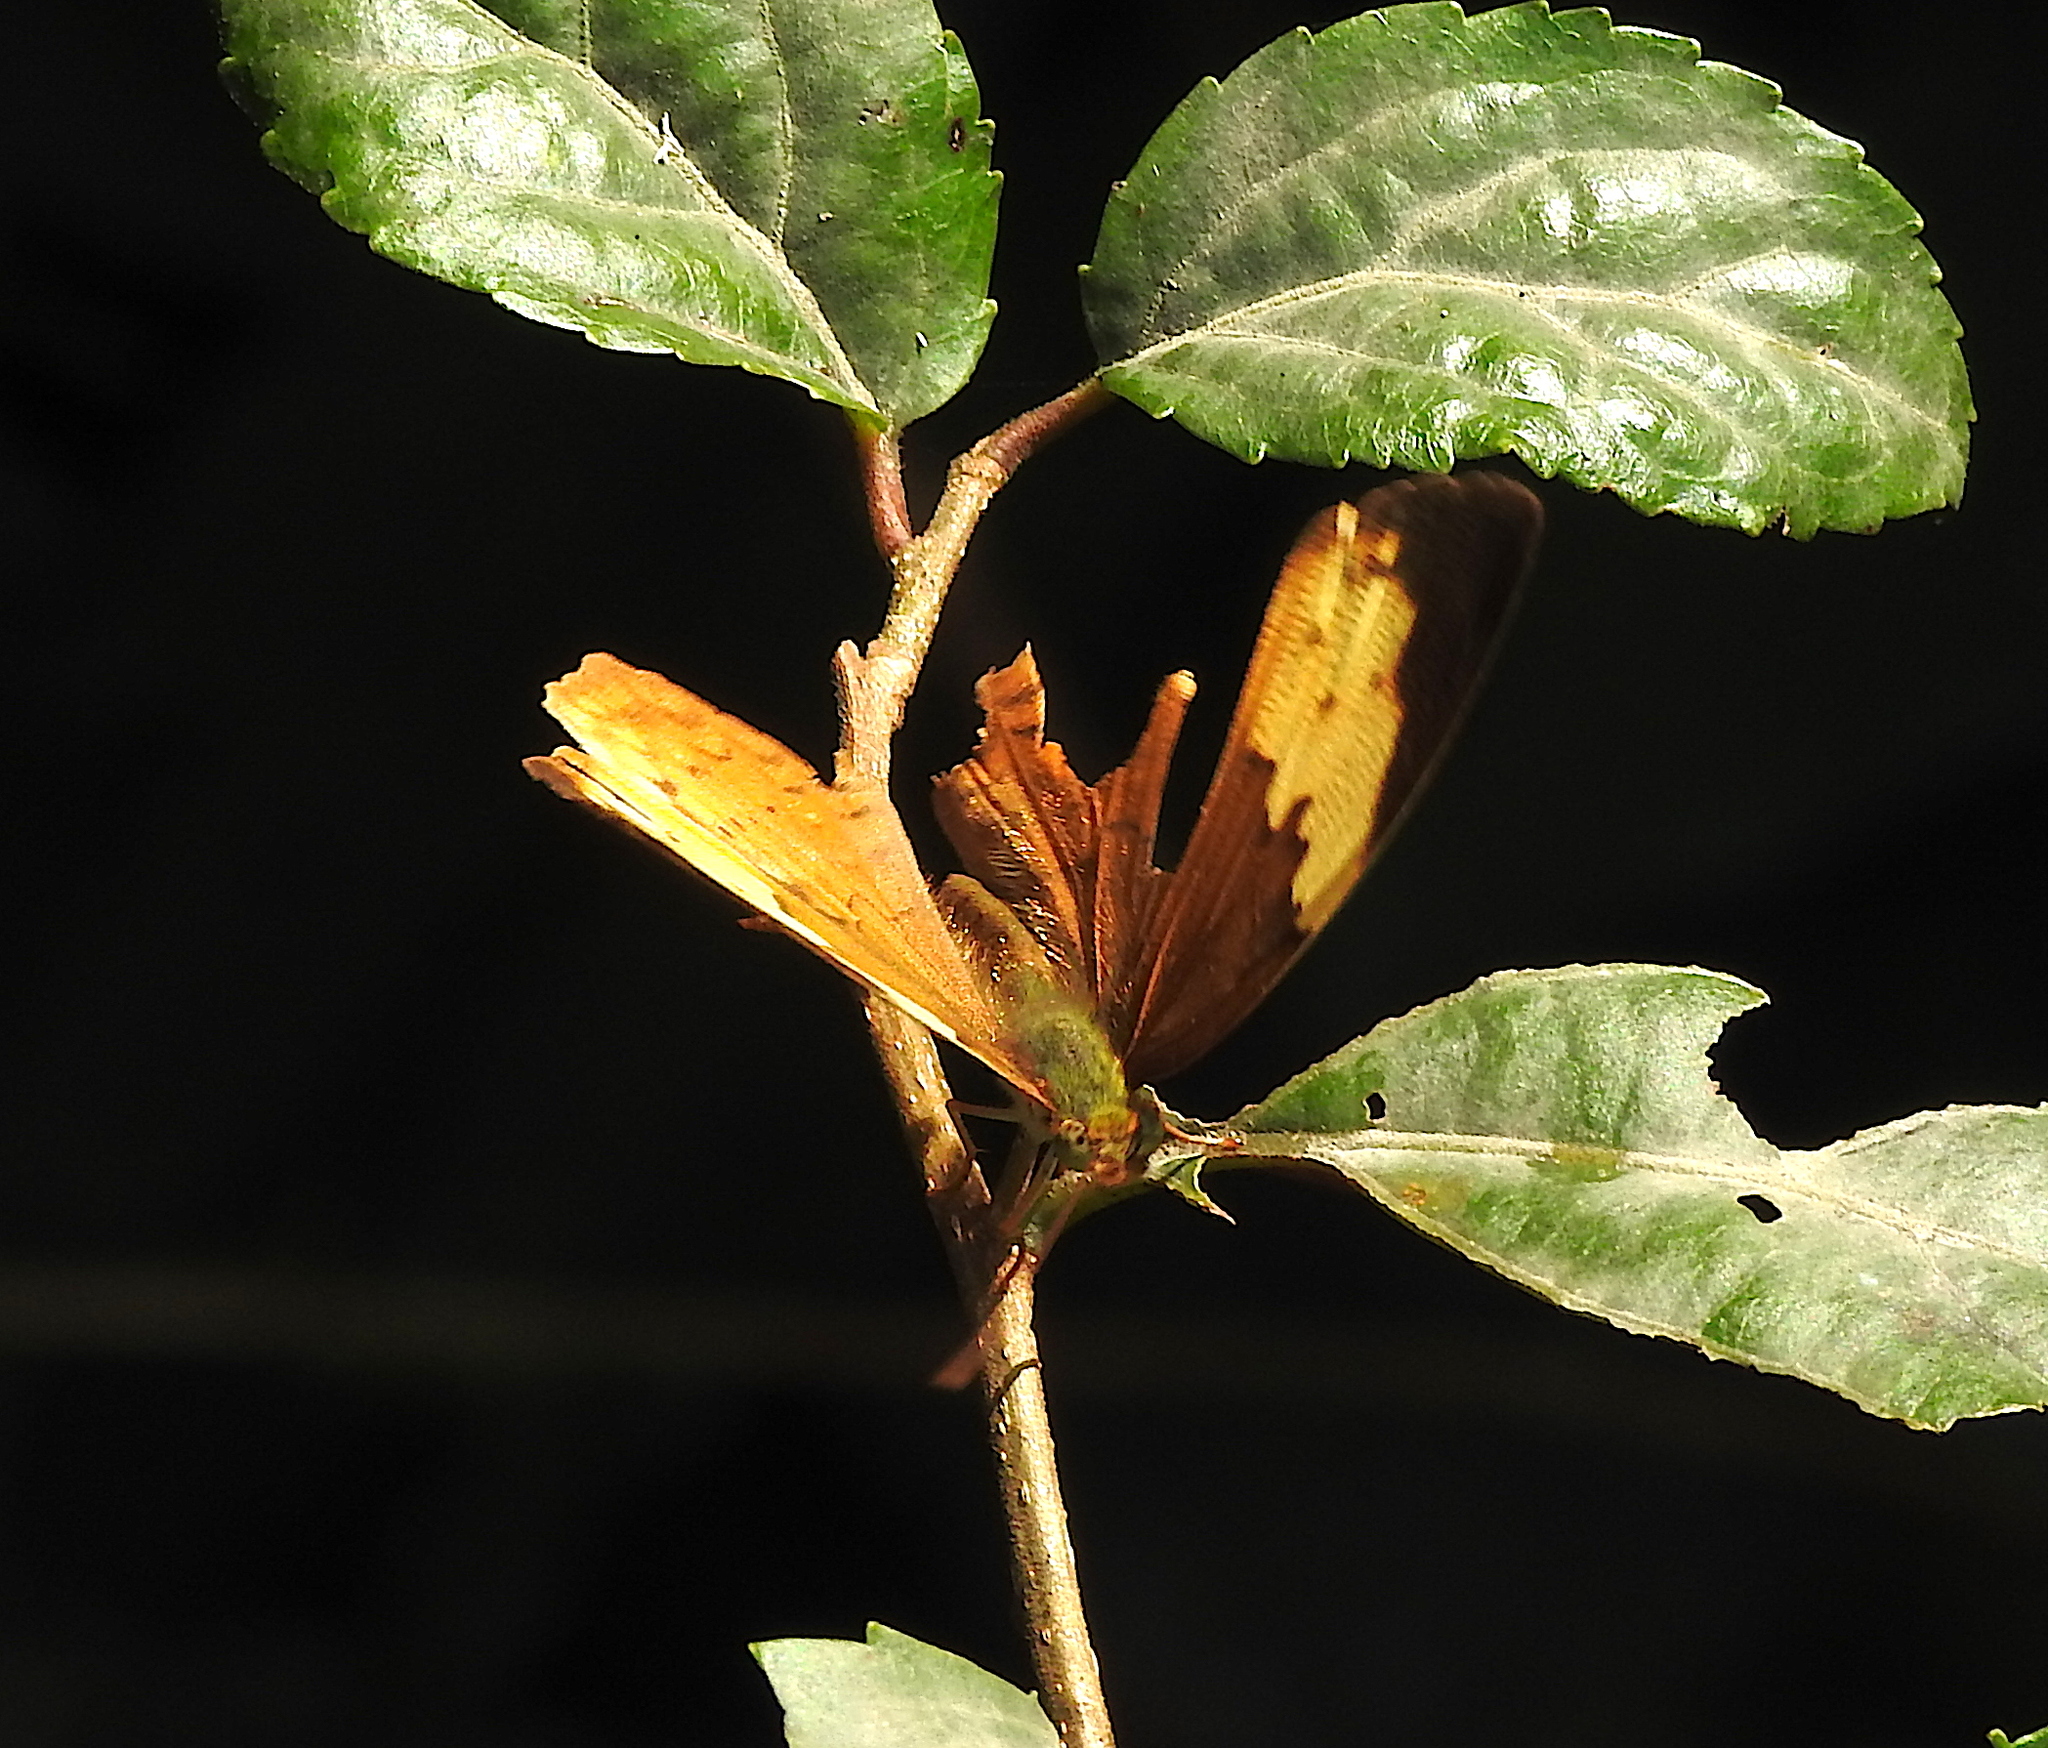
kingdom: Animalia
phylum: Arthropoda
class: Insecta
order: Lepidoptera
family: Nymphalidae
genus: Cupha
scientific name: Cupha erymanthis
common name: Rustic
